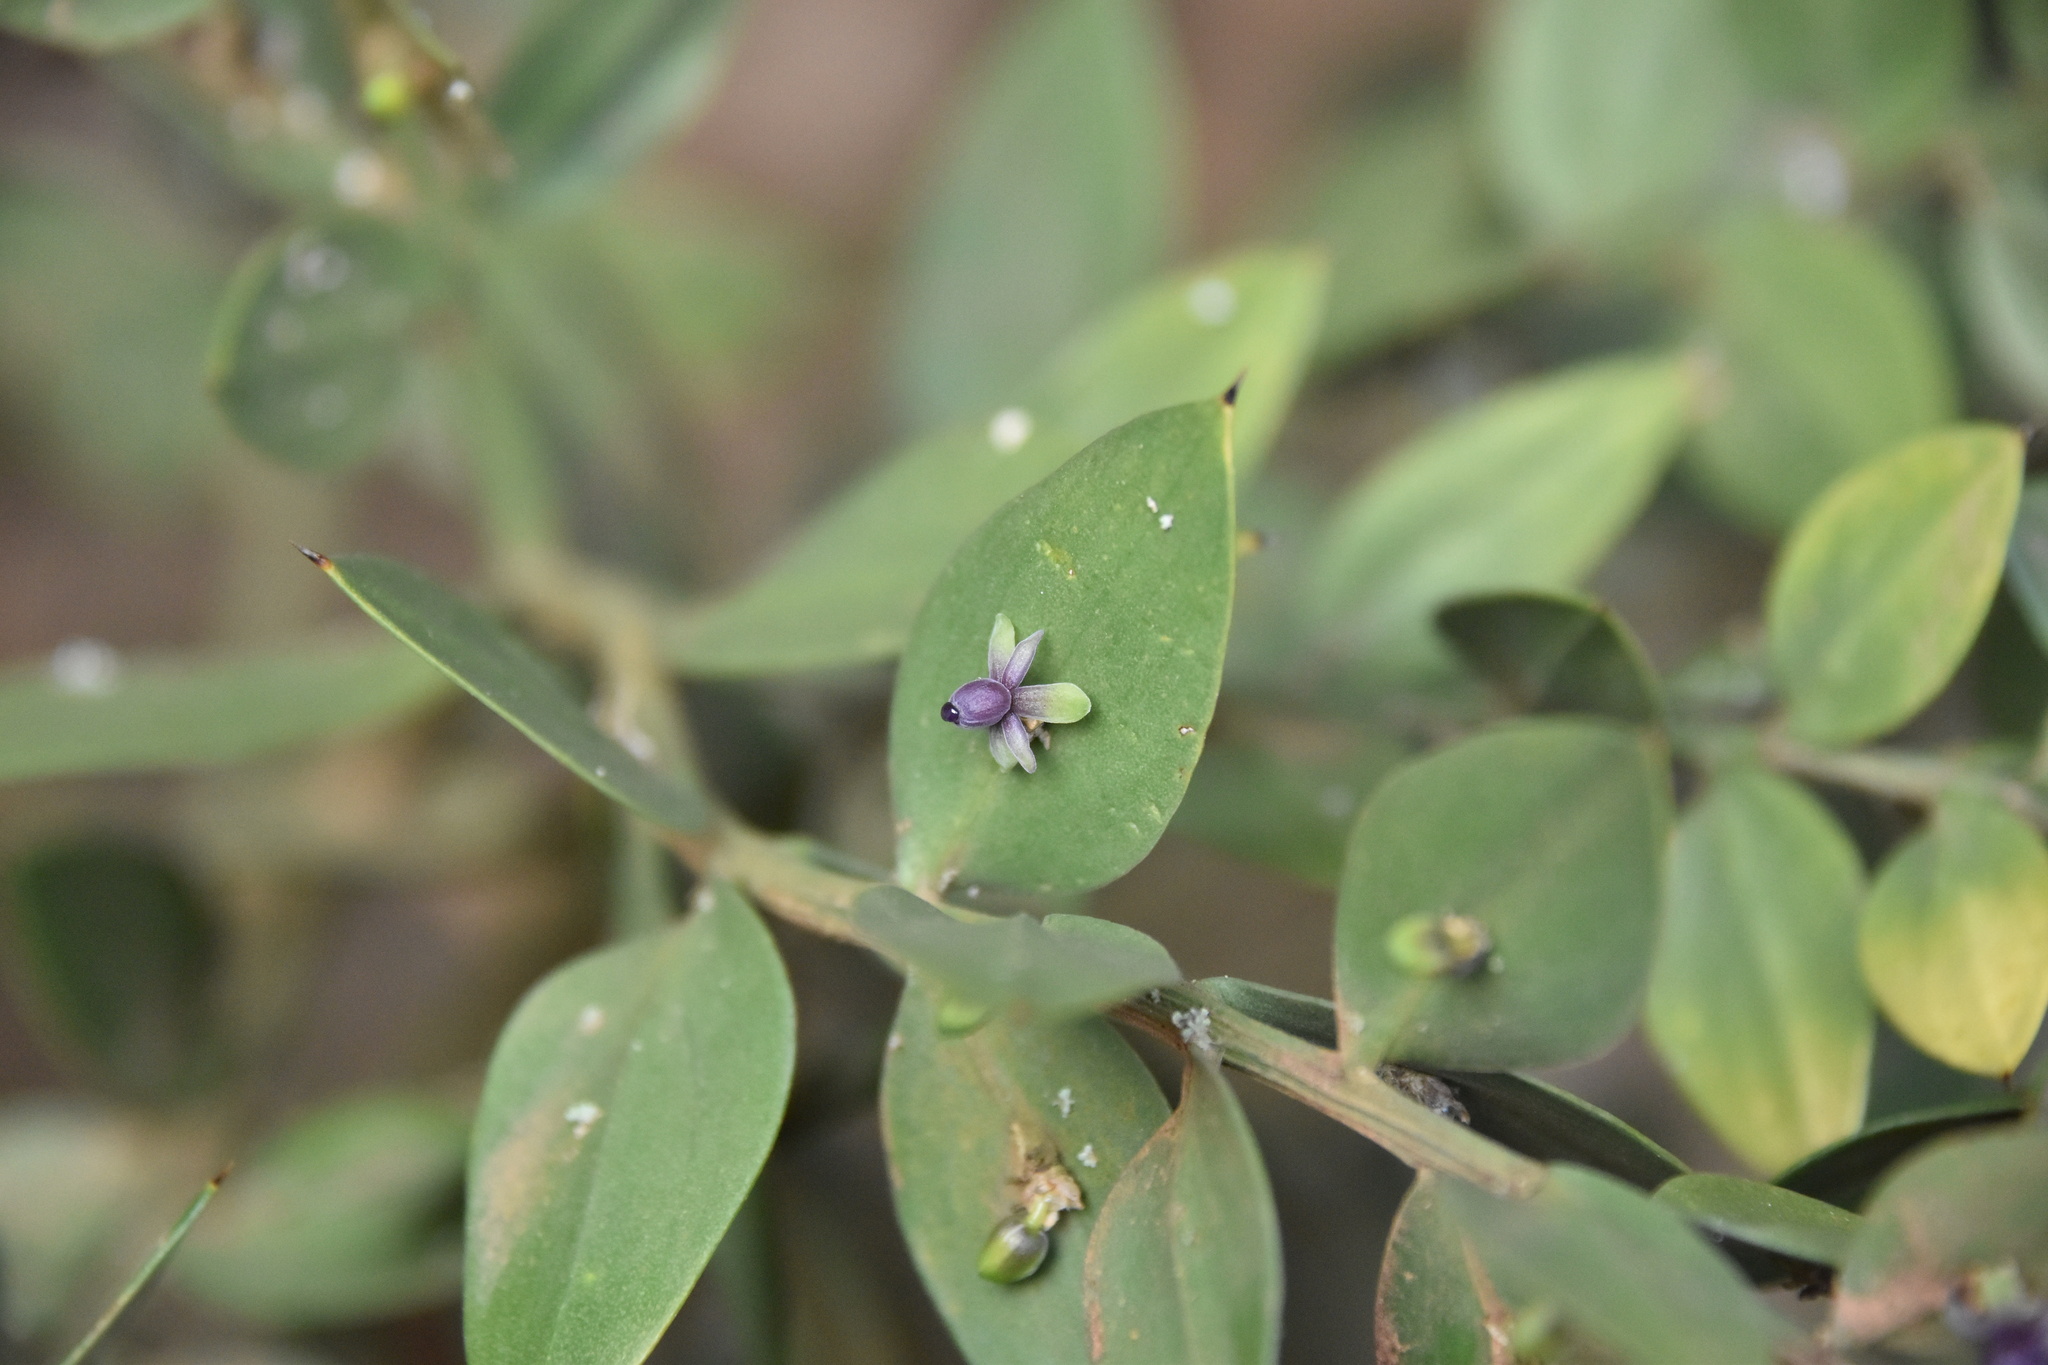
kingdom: Plantae
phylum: Tracheophyta
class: Liliopsida
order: Asparagales
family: Asparagaceae
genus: Ruscus
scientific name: Ruscus aculeatus
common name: Butcher's-broom
